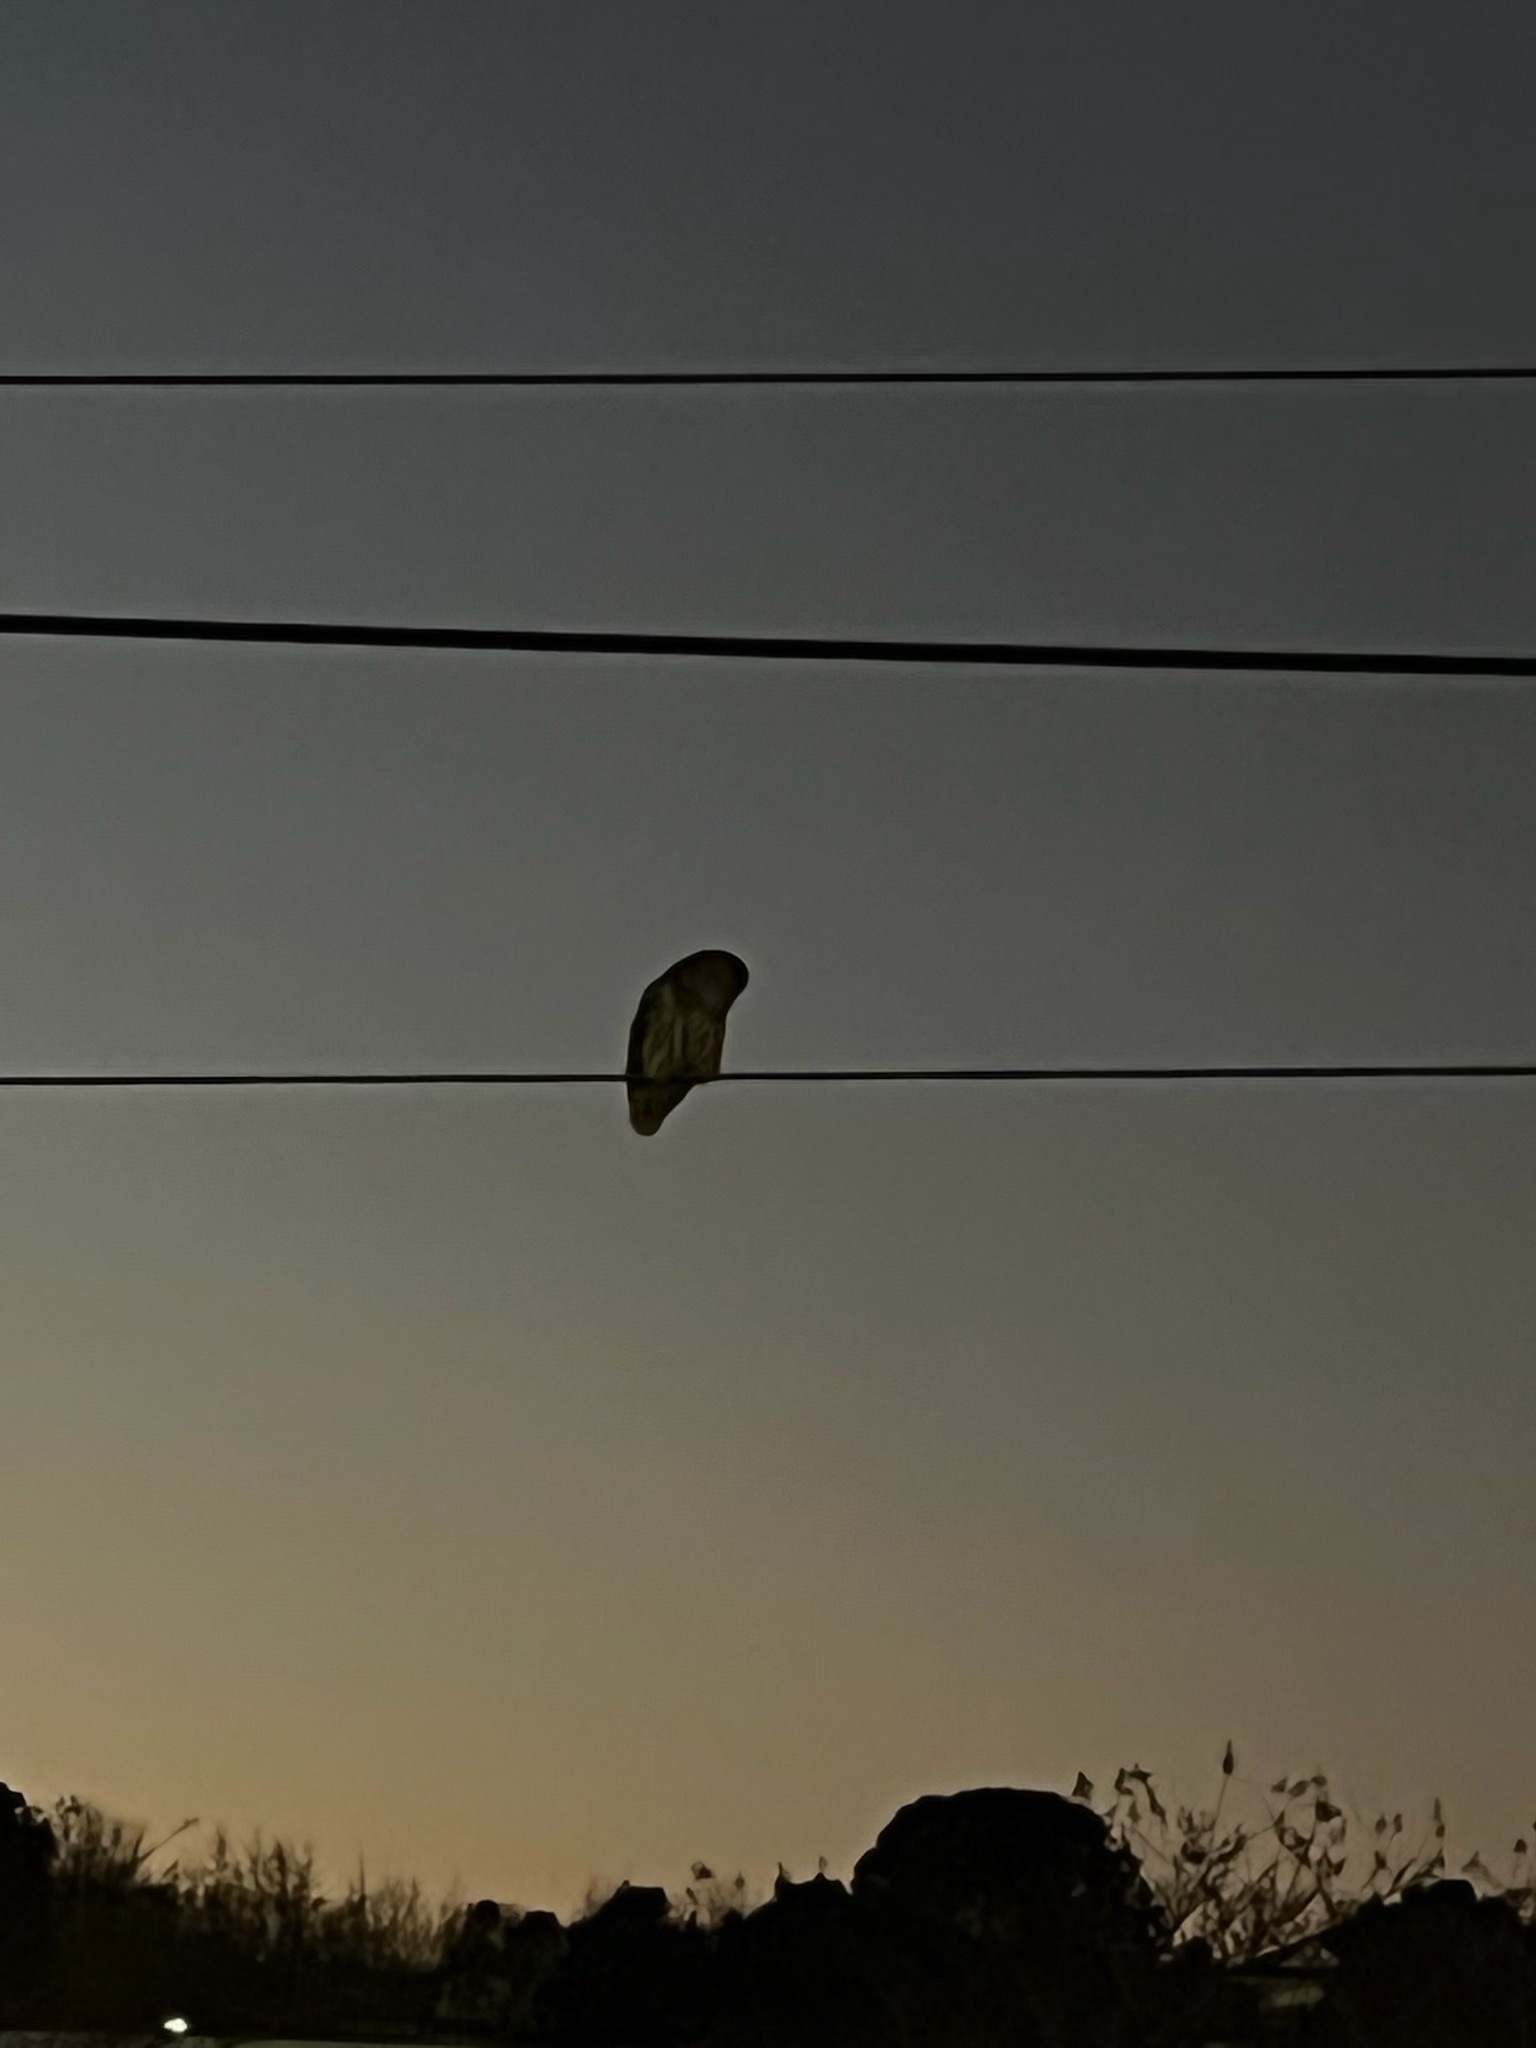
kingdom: Animalia
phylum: Chordata
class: Aves
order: Strigiformes
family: Strigidae
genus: Strix
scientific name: Strix varia
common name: Barred owl
